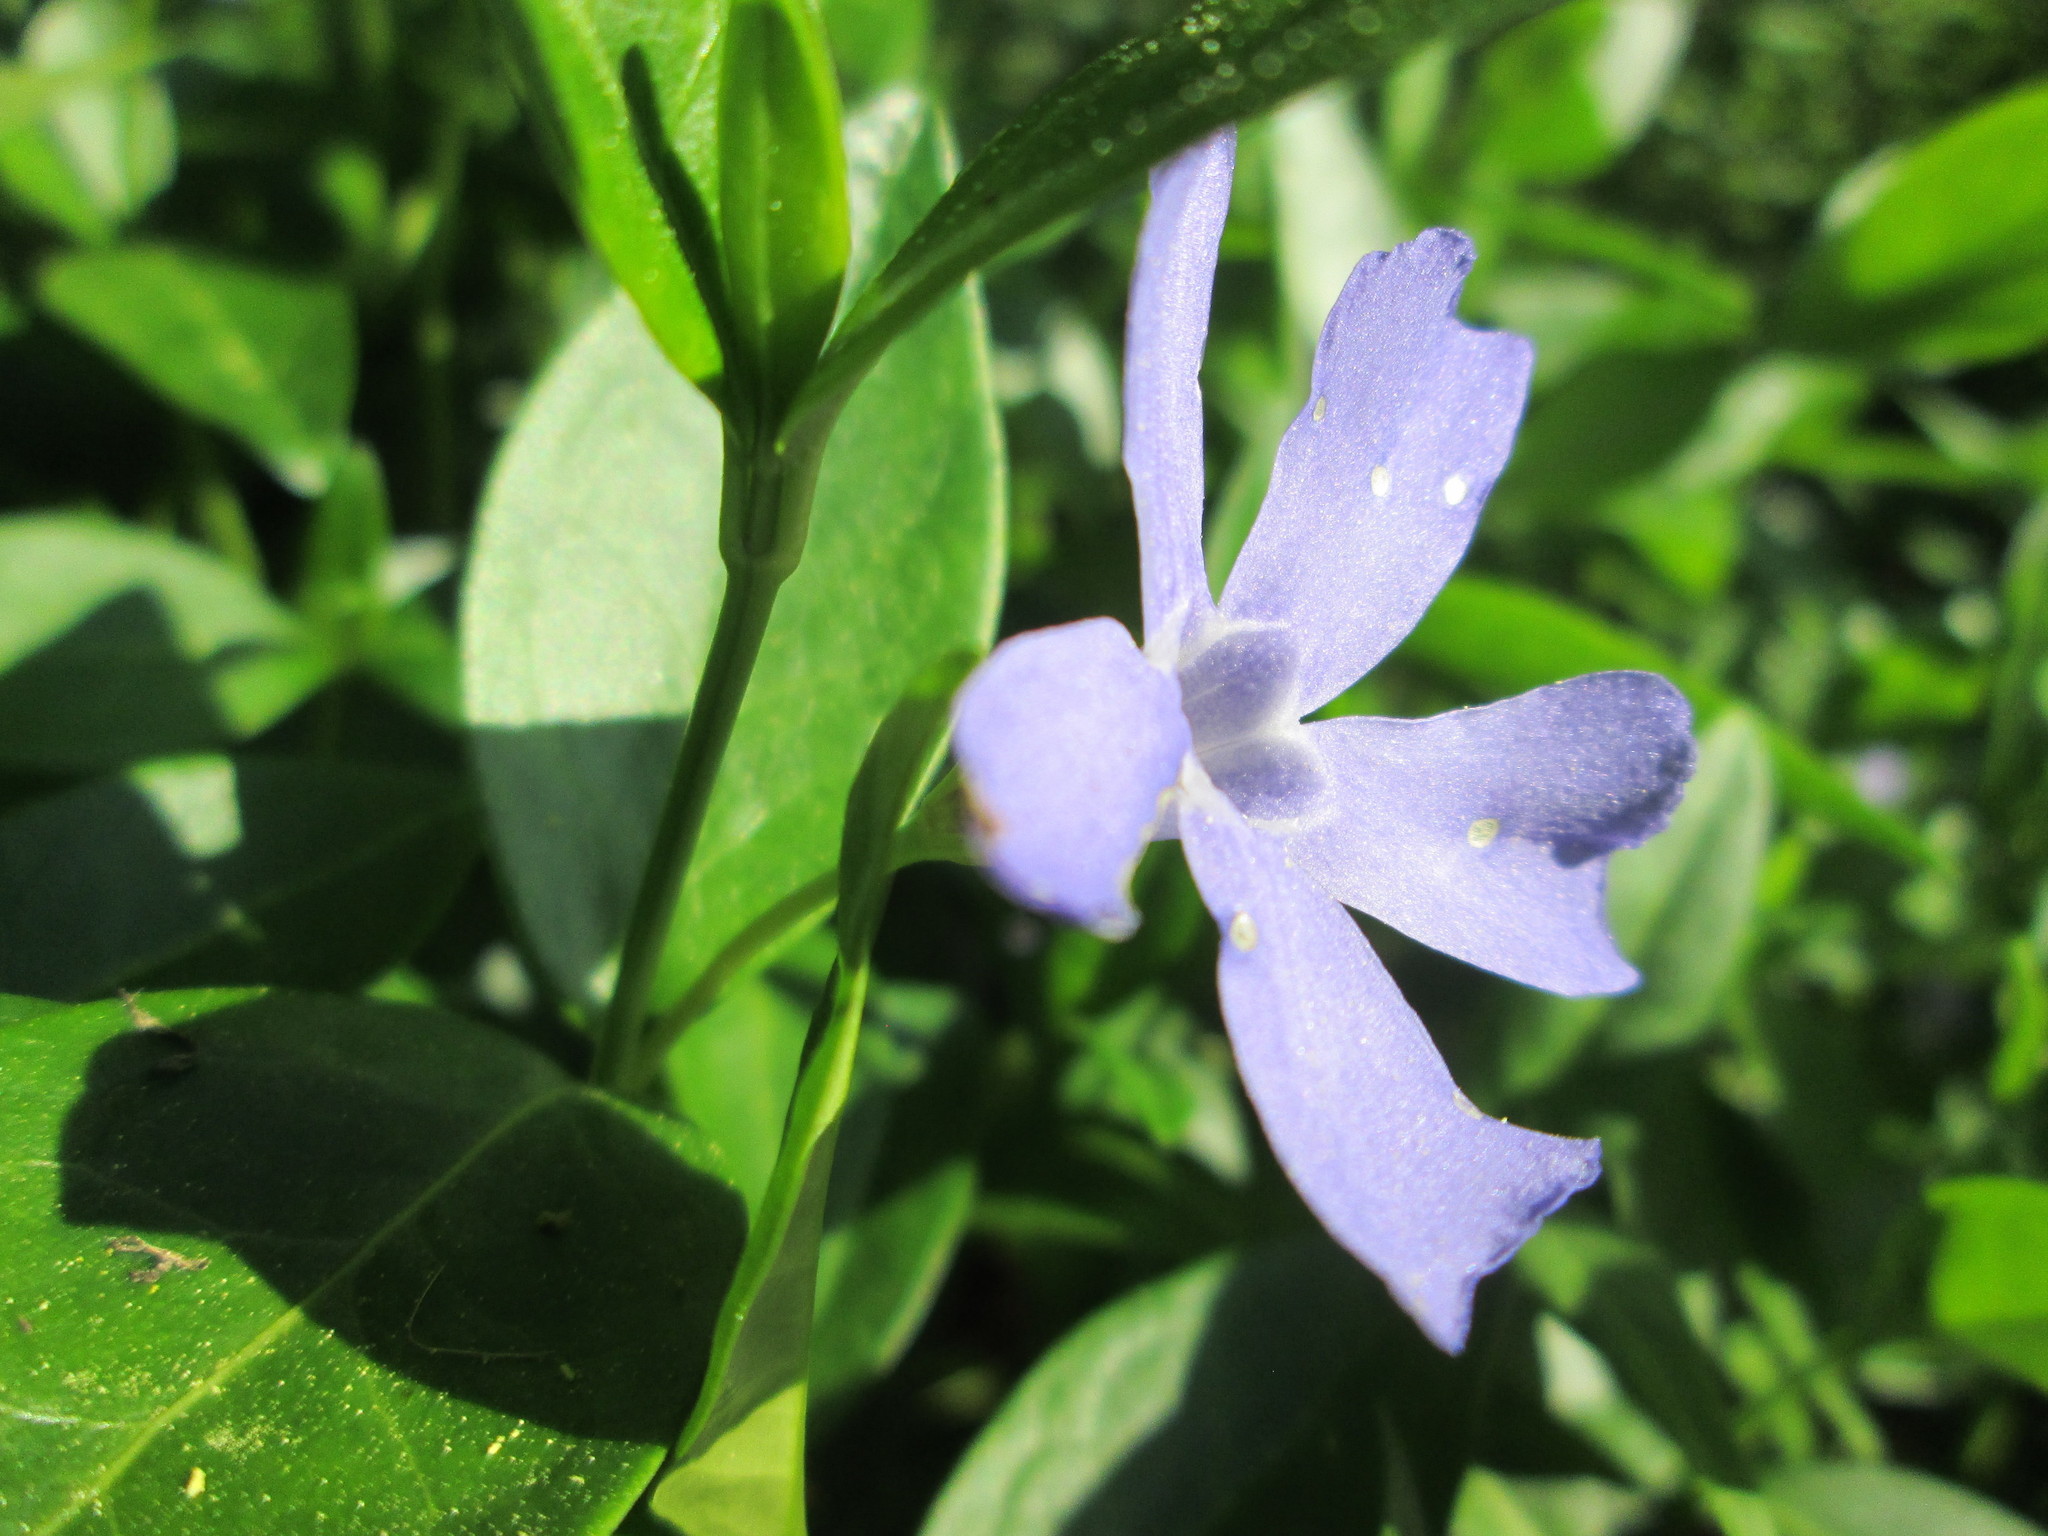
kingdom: Plantae
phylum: Tracheophyta
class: Magnoliopsida
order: Gentianales
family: Apocynaceae
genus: Vinca
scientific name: Vinca minor
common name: Lesser periwinkle
